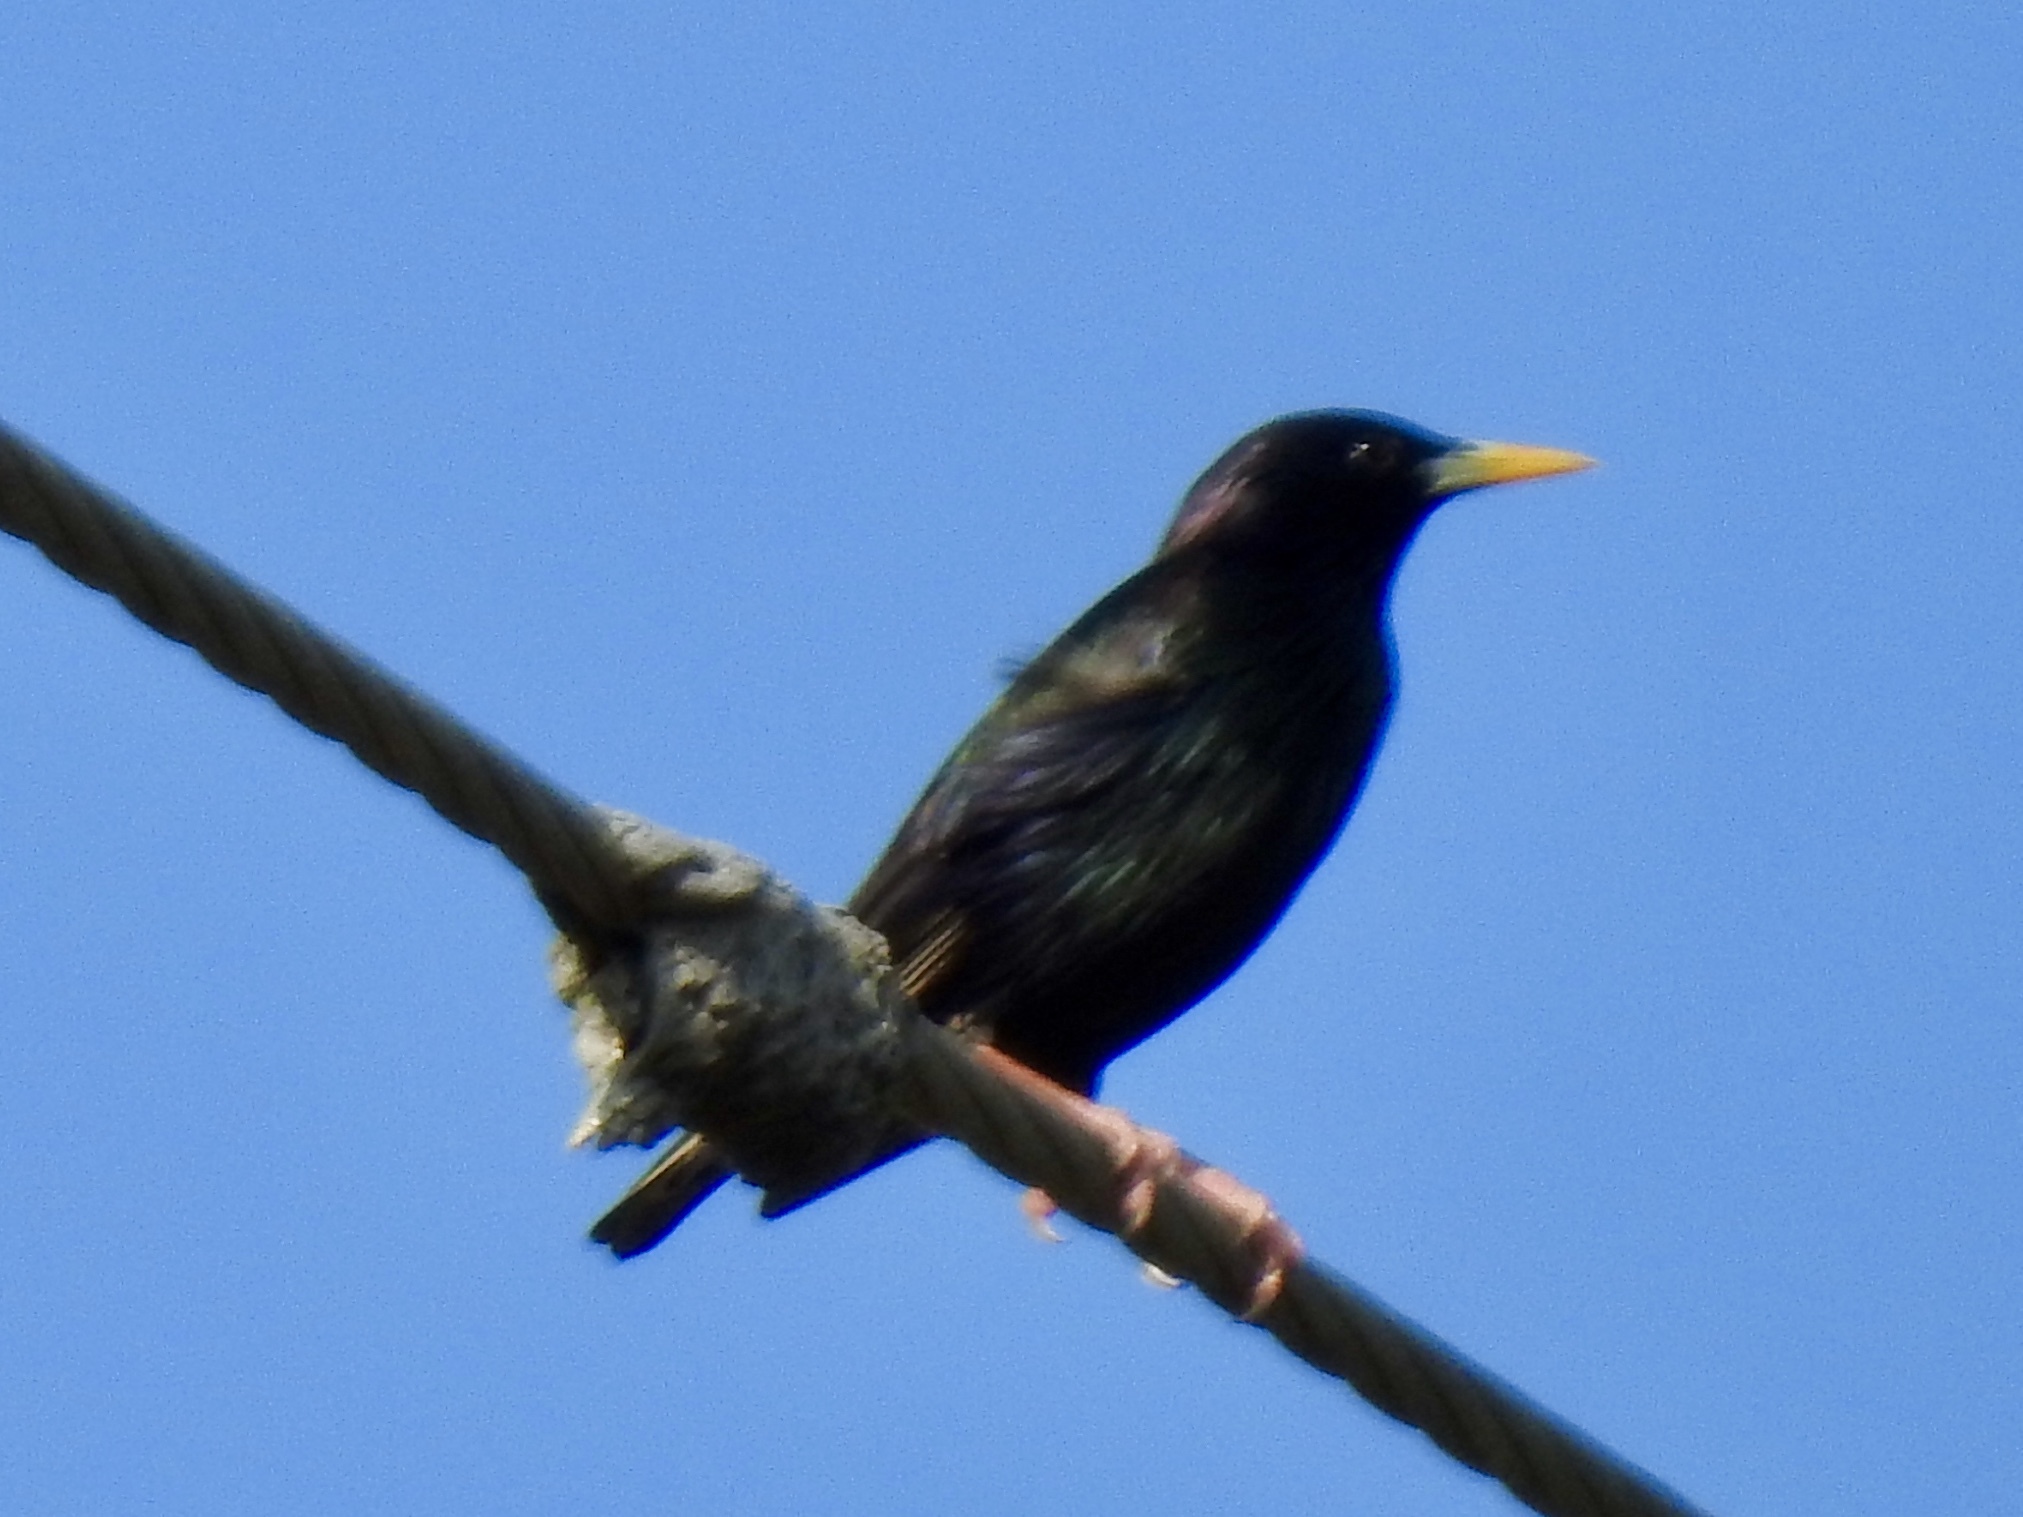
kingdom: Animalia
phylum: Chordata
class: Aves
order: Passeriformes
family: Sturnidae
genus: Sturnus
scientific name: Sturnus vulgaris
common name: Common starling
